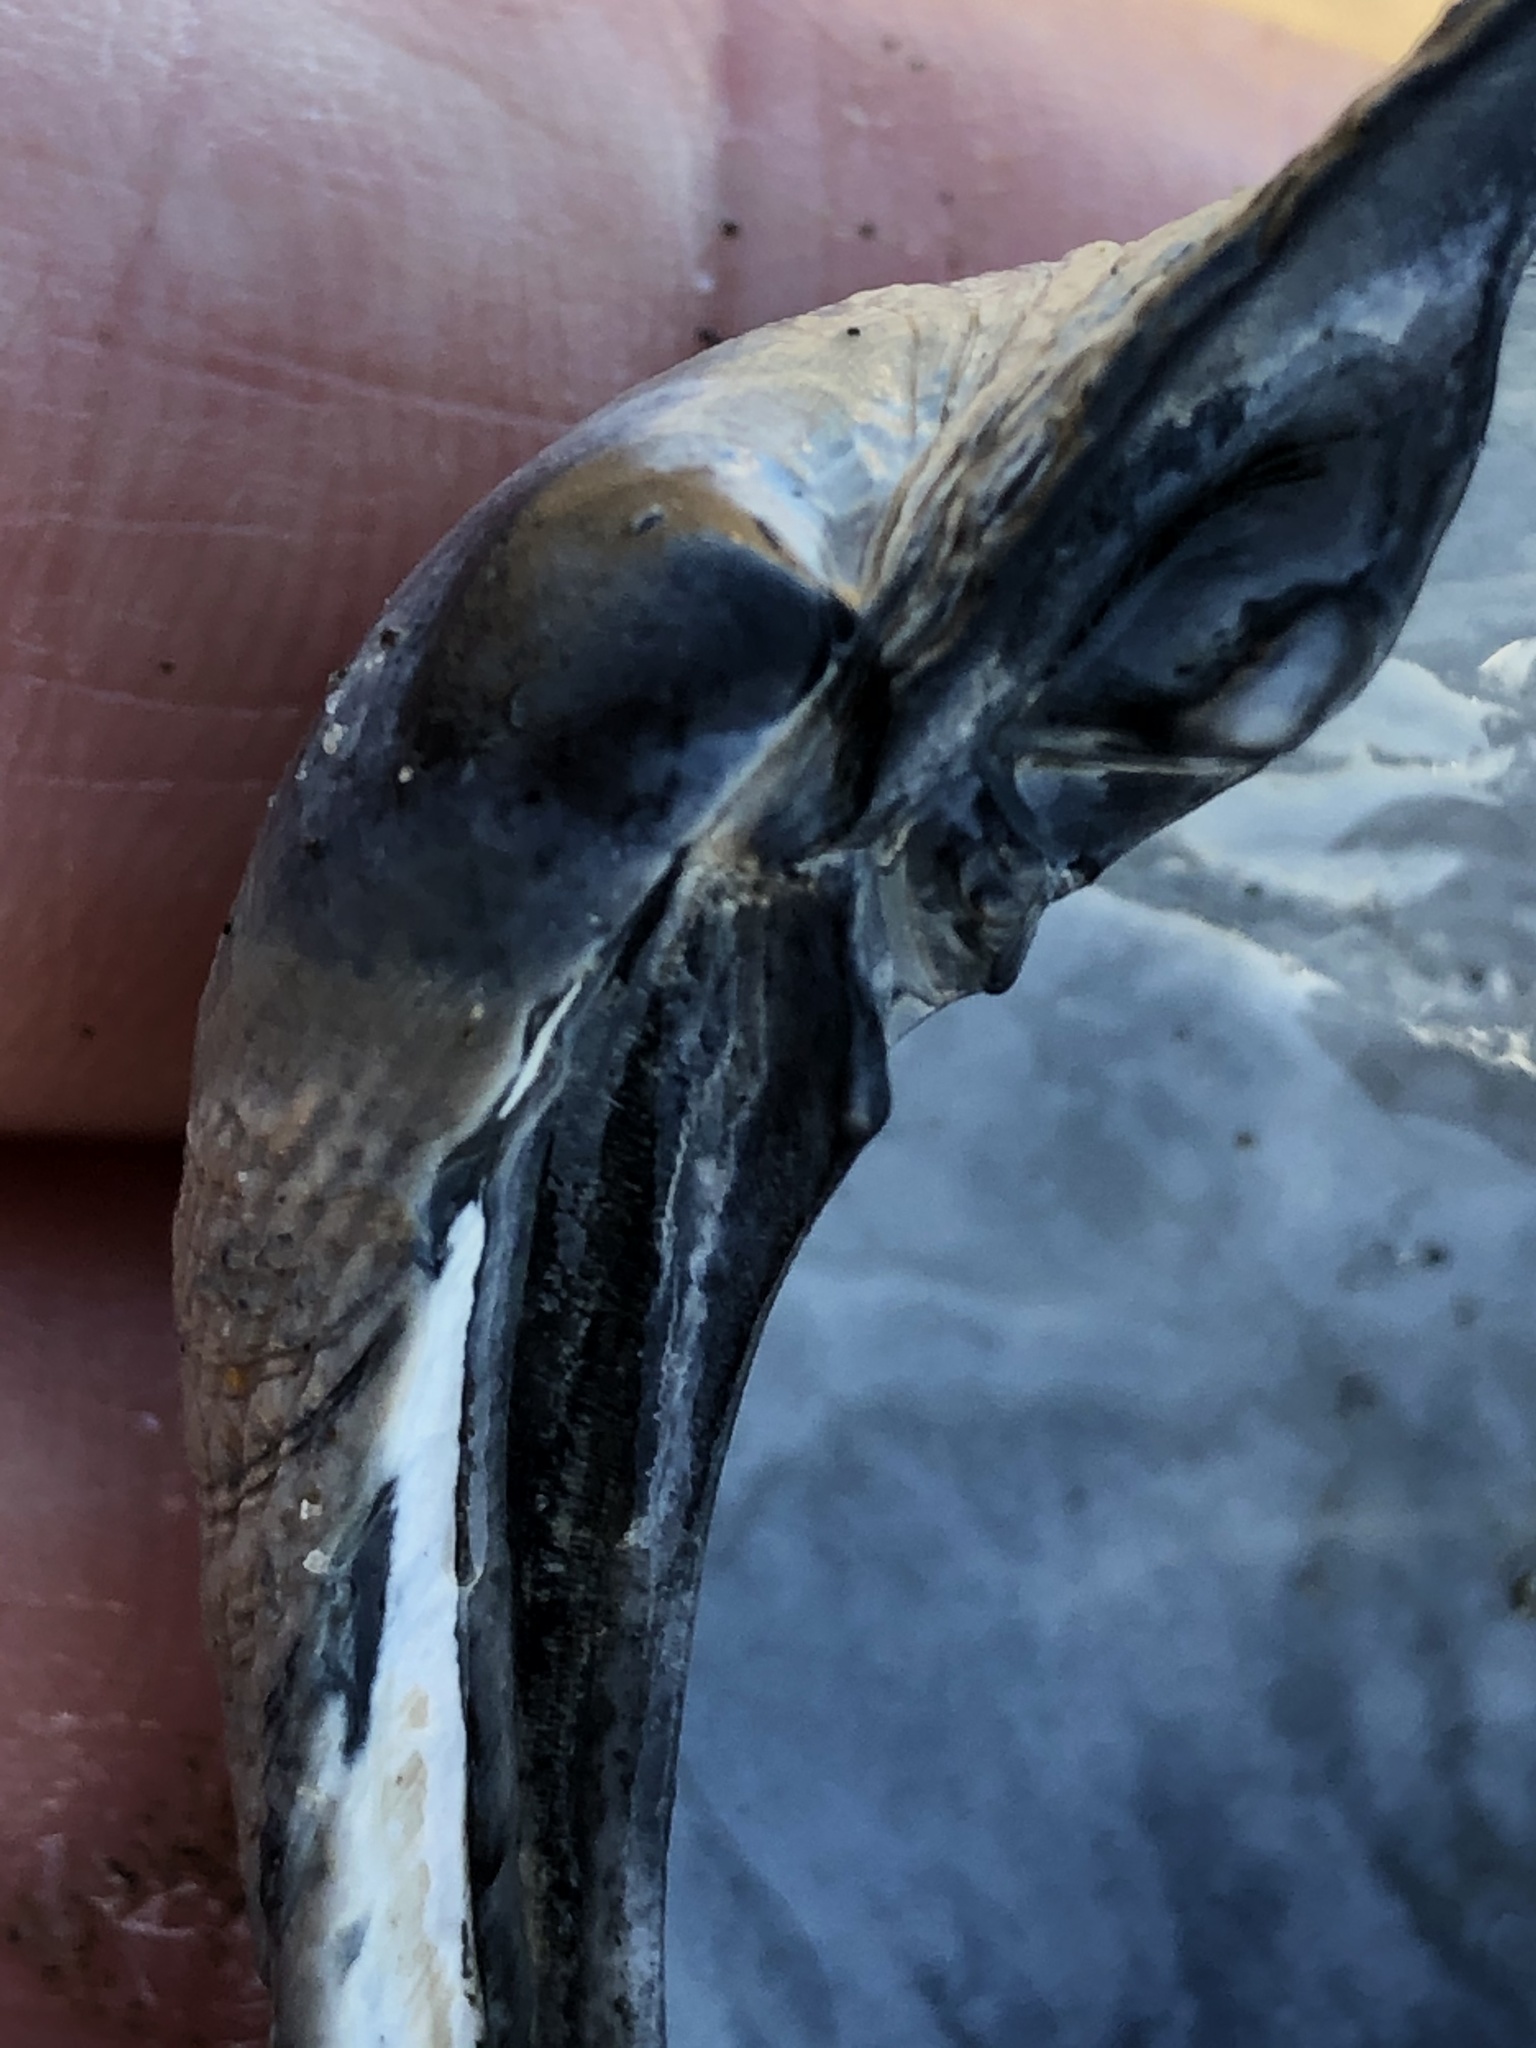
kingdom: Animalia
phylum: Mollusca
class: Bivalvia
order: Venerida
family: Veneridae
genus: Leukoma
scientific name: Leukoma staminea
